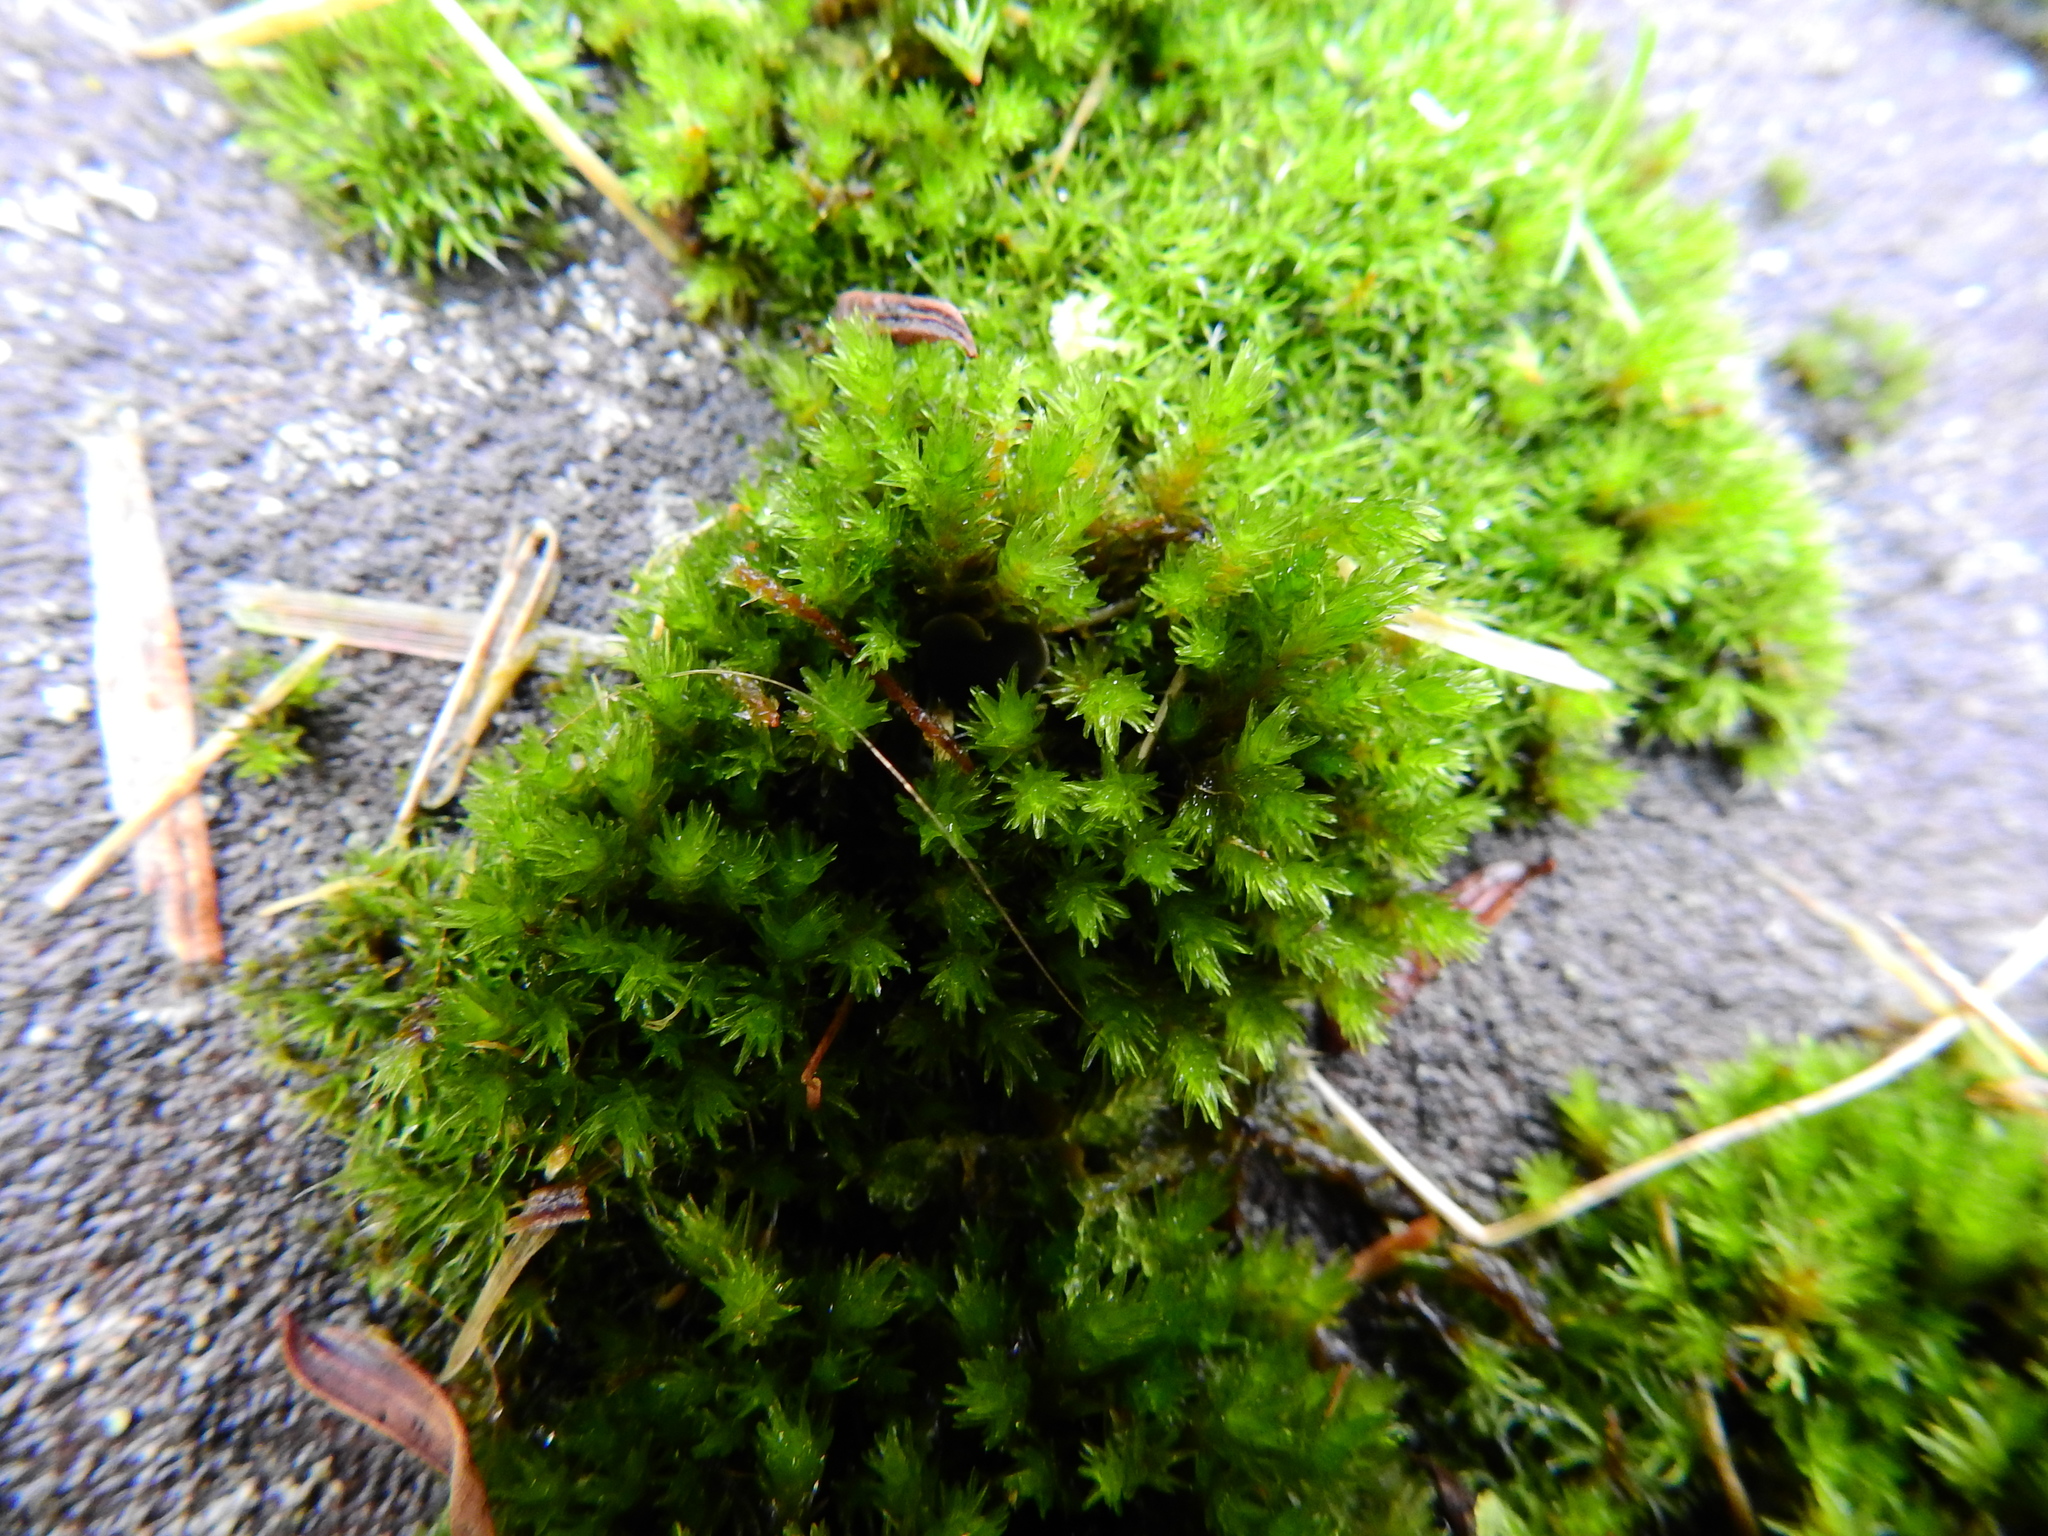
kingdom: Plantae
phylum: Bryophyta
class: Bryopsida
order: Grimmiales
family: Grimmiaceae
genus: Codriophorus
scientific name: Codriophorus acicularis
